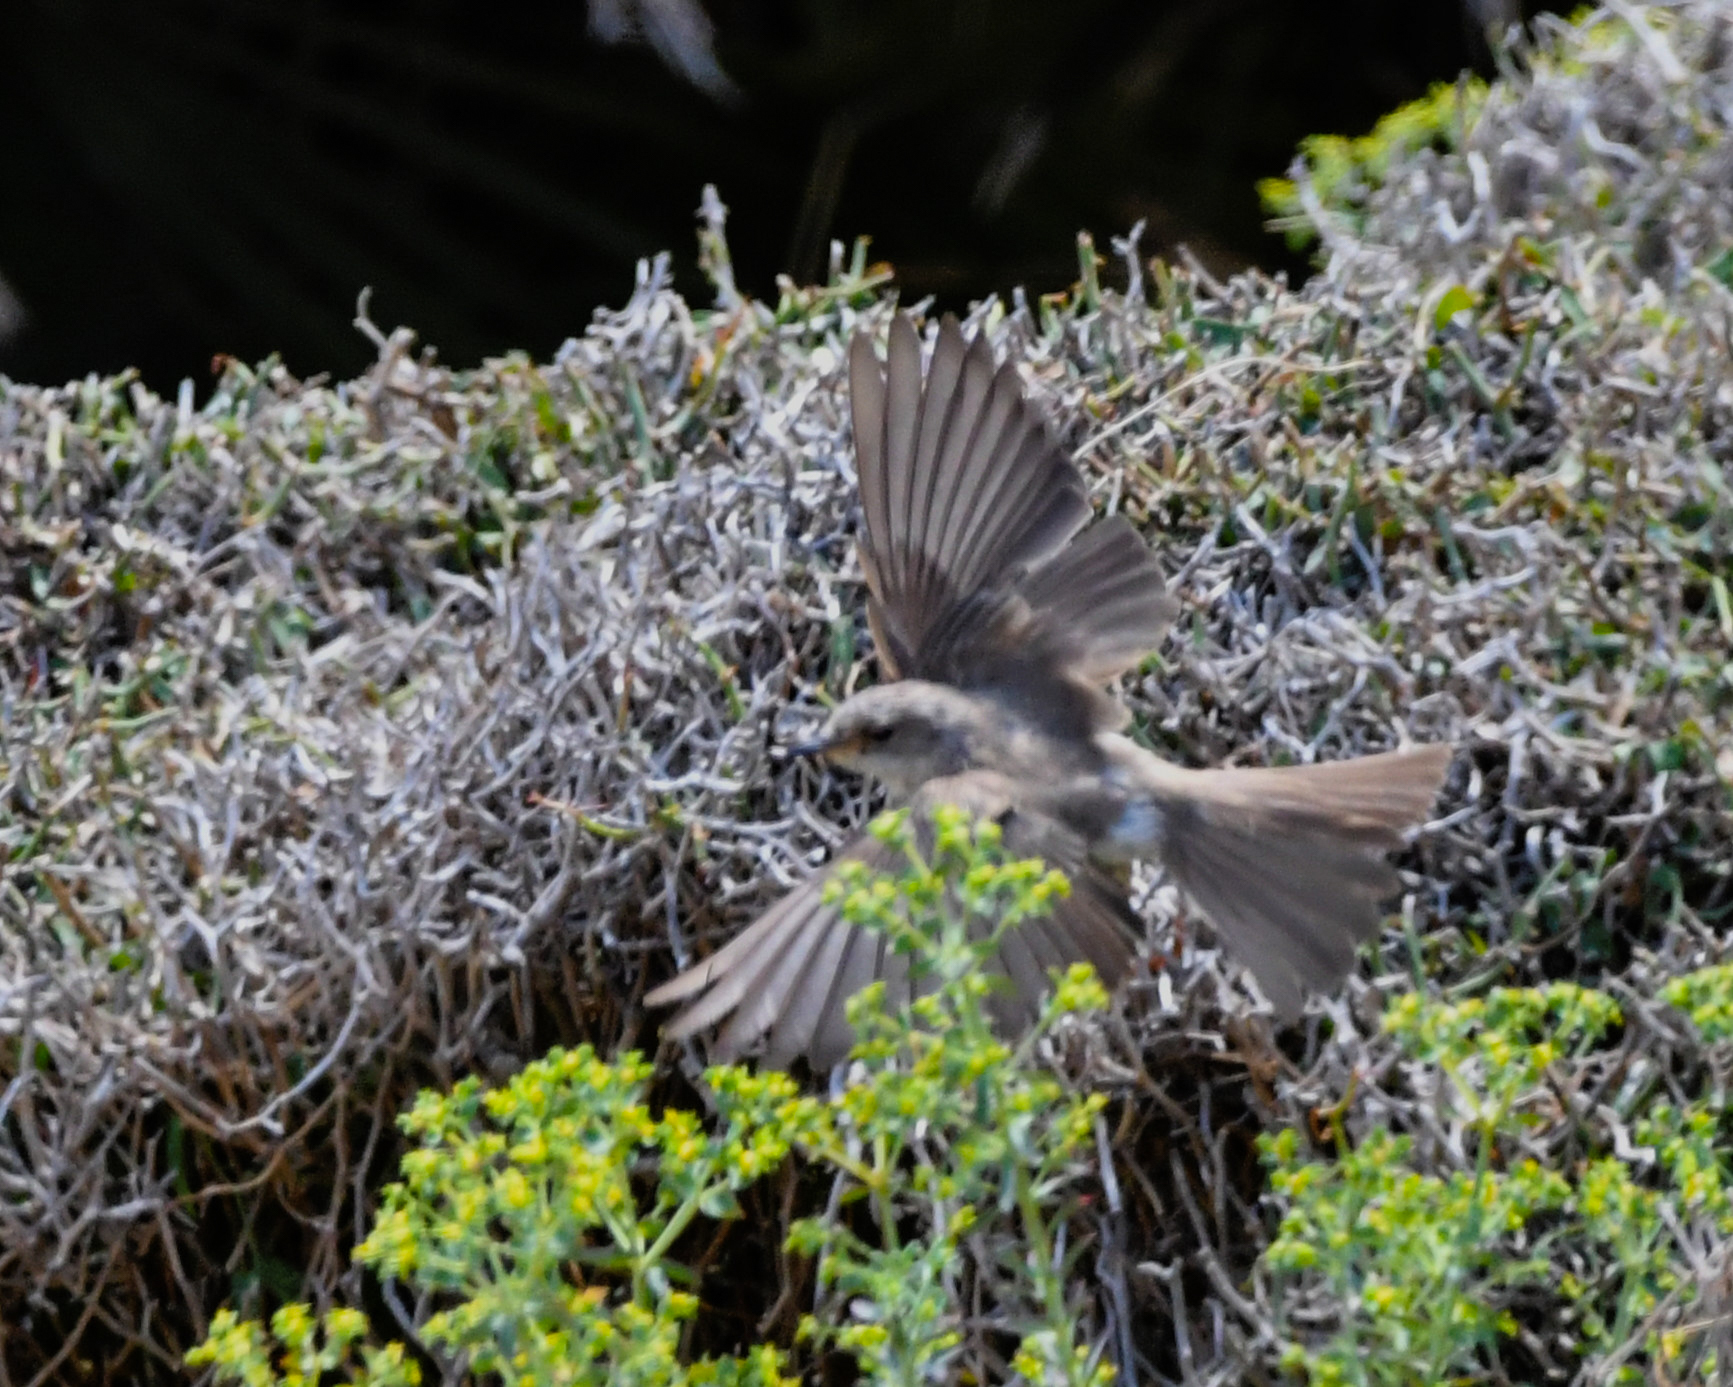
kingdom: Animalia
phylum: Chordata
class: Aves
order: Passeriformes
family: Muscicapidae
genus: Muscicapa
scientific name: Muscicapa striata
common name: Spotted flycatcher
